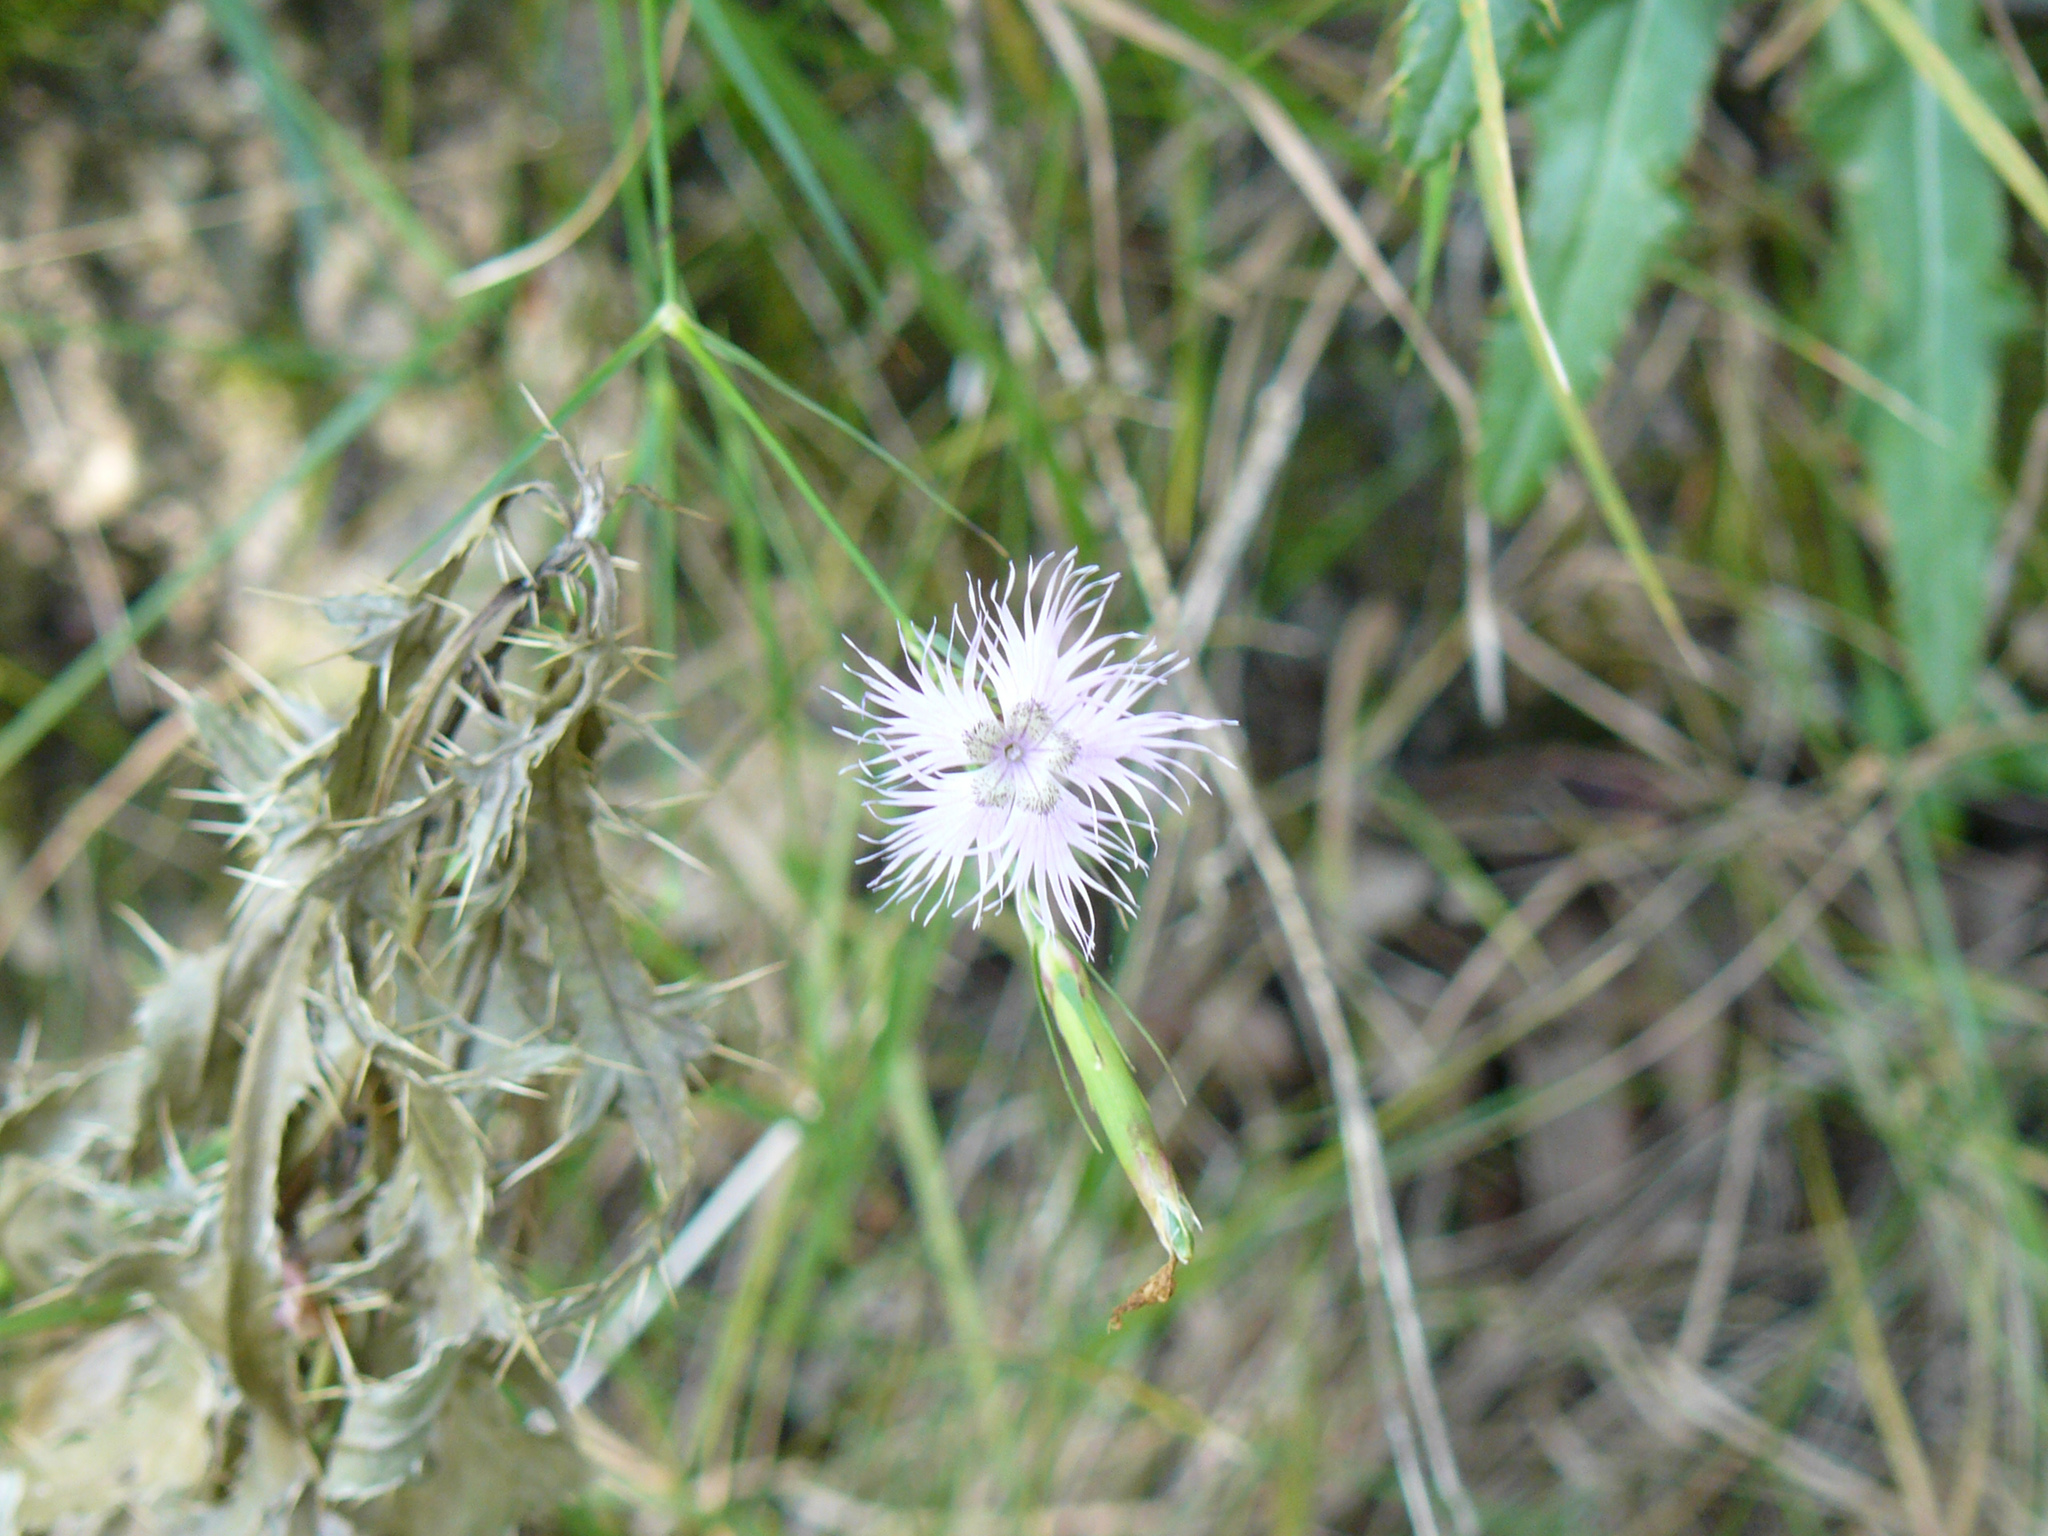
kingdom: Plantae
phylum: Tracheophyta
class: Magnoliopsida
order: Caryophyllales
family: Caryophyllaceae
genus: Dianthus
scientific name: Dianthus hyssopifolius
